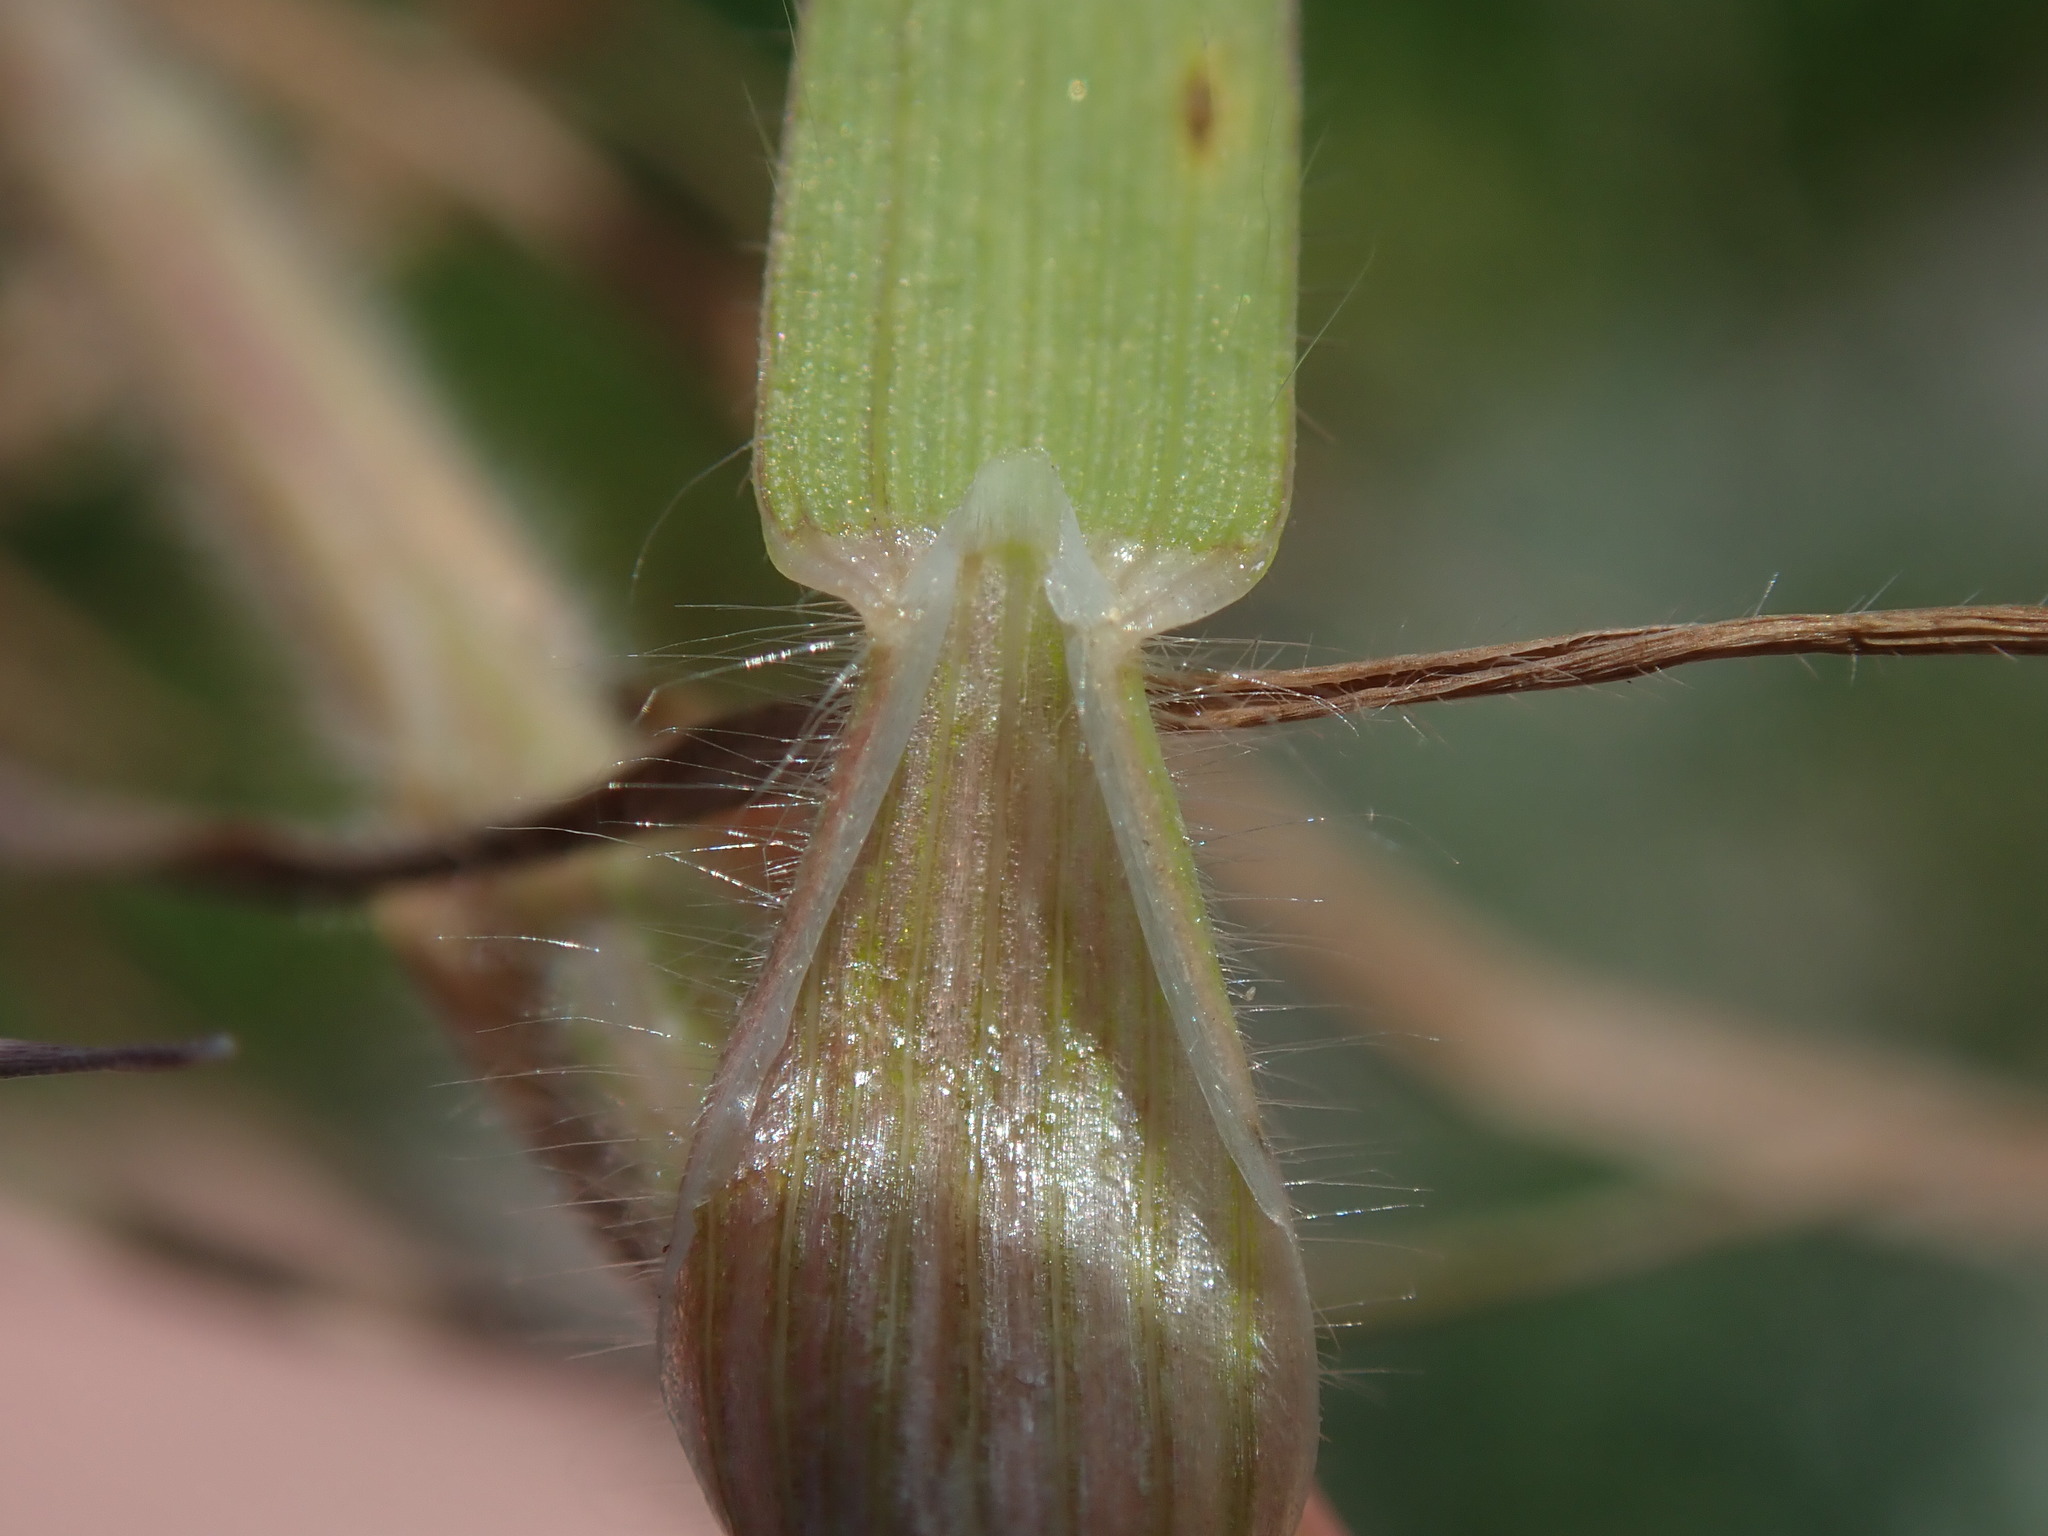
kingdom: Plantae
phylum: Tracheophyta
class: Liliopsida
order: Poales
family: Poaceae
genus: Bromus
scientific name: Bromus hordeaceus
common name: Soft brome
